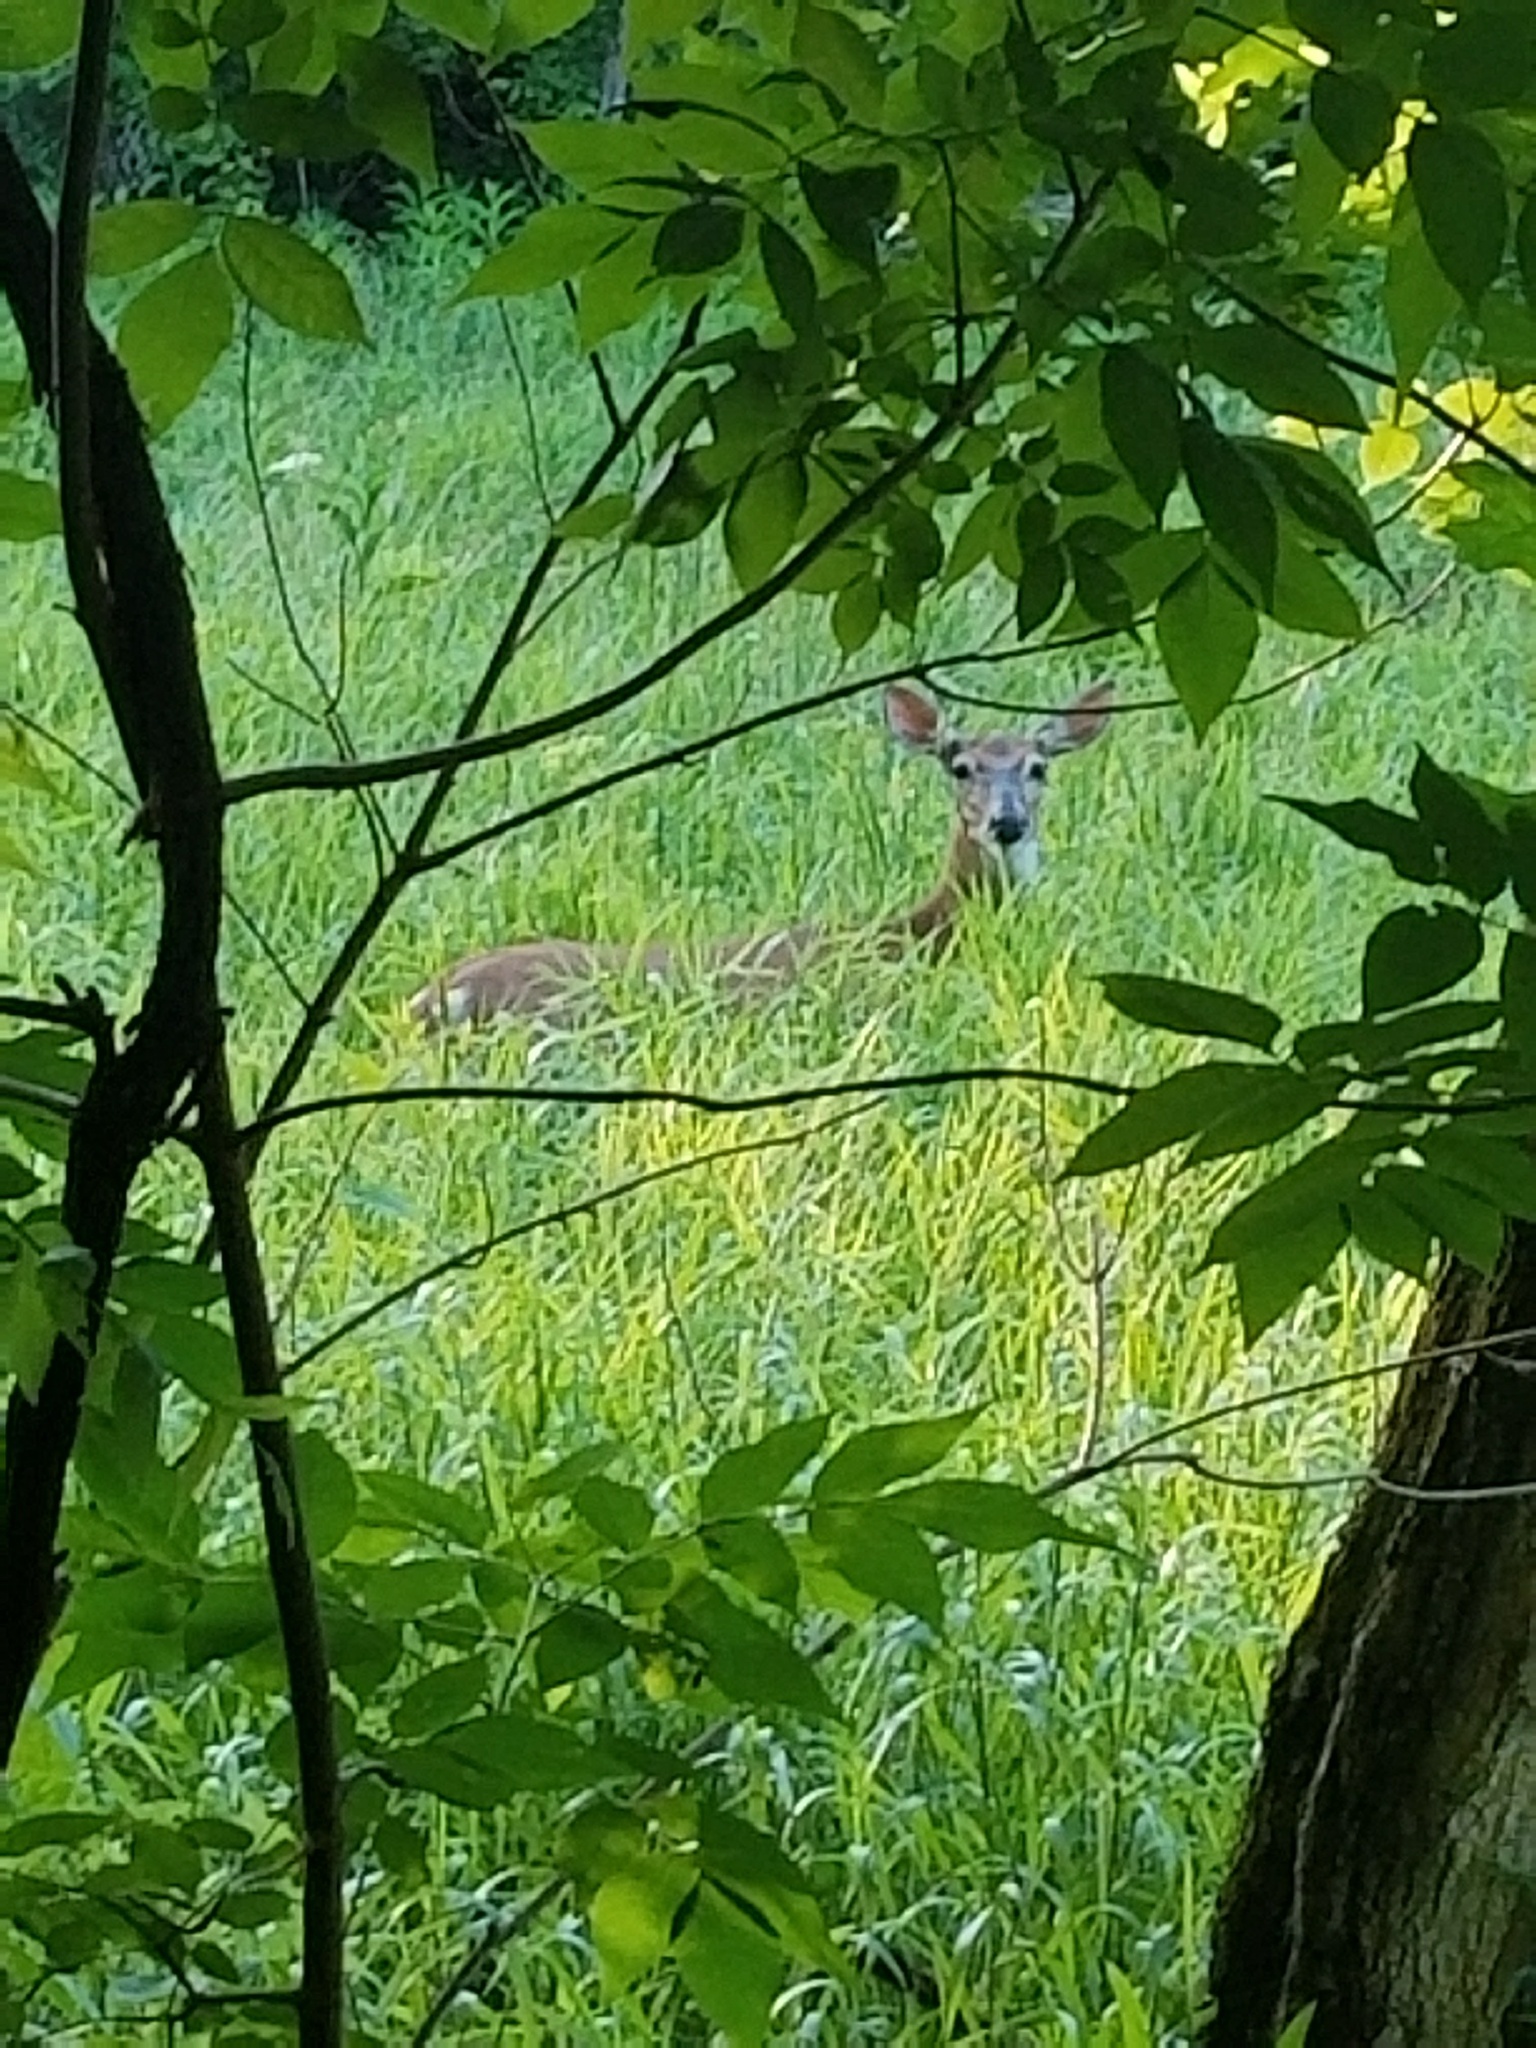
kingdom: Animalia
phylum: Chordata
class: Mammalia
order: Artiodactyla
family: Cervidae
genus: Odocoileus
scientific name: Odocoileus virginianus
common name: White-tailed deer
